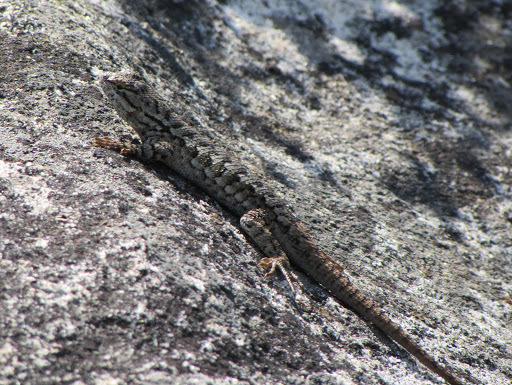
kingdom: Animalia
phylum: Chordata
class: Squamata
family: Phrynosomatidae
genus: Sceloporus
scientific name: Sceloporus occidentalis
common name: Western fence lizard
